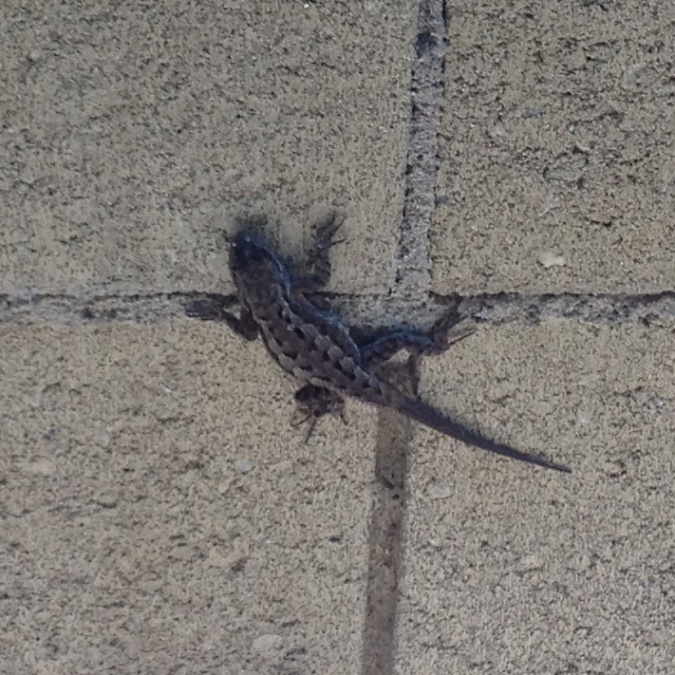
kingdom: Animalia
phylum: Chordata
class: Squamata
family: Phrynosomatidae
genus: Sceloporus
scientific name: Sceloporus occidentalis
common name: Western fence lizard
